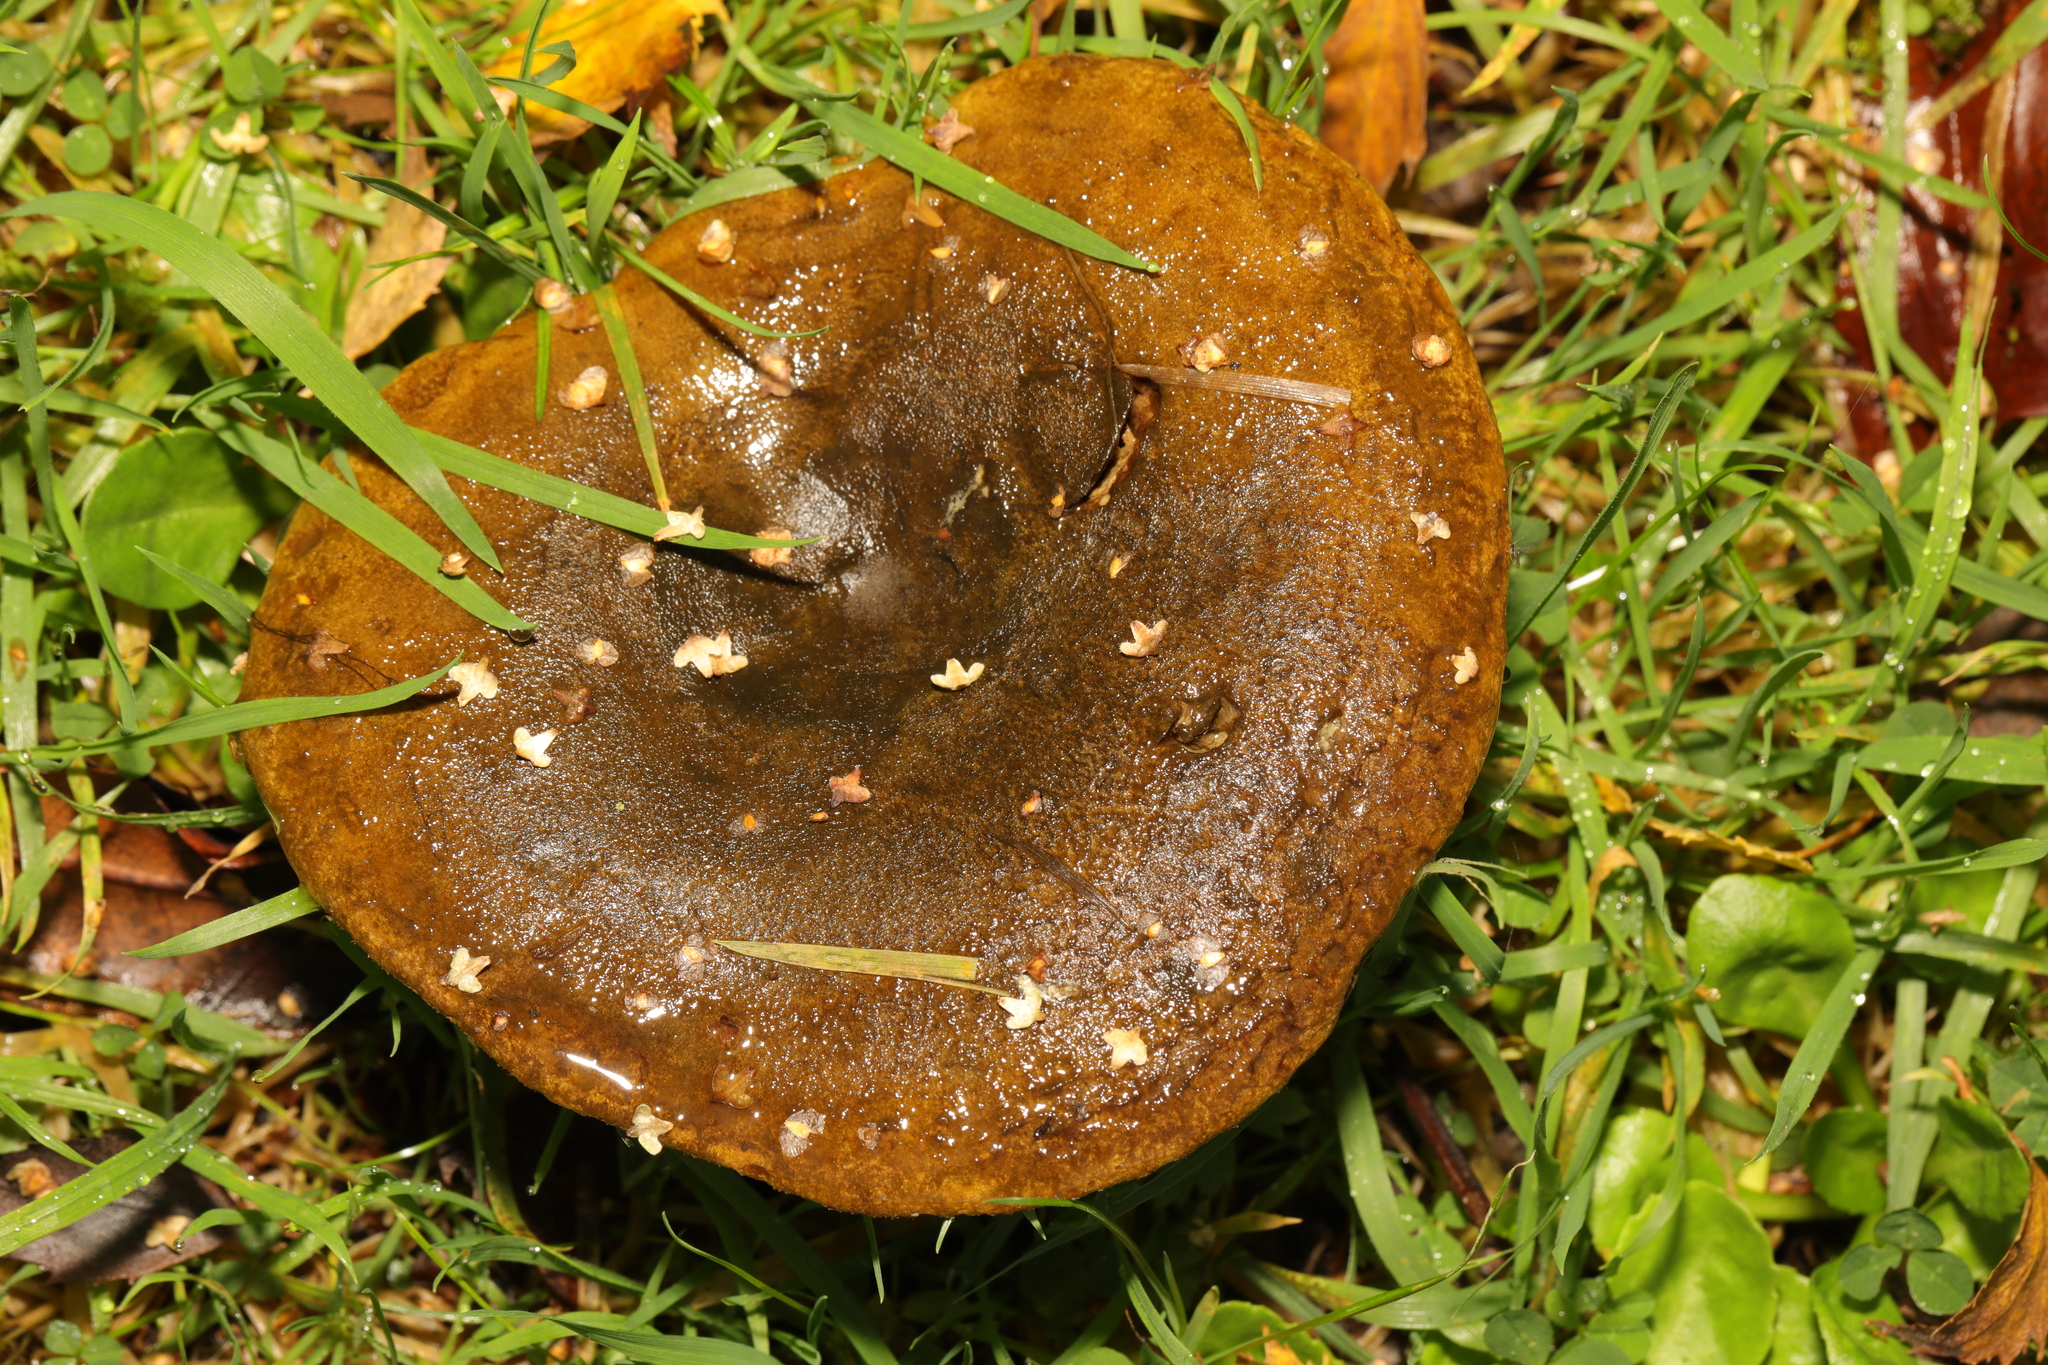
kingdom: Fungi
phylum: Basidiomycota
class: Agaricomycetes
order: Russulales
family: Russulaceae
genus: Lactarius
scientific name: Lactarius turpis
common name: Ugly milk-cap
